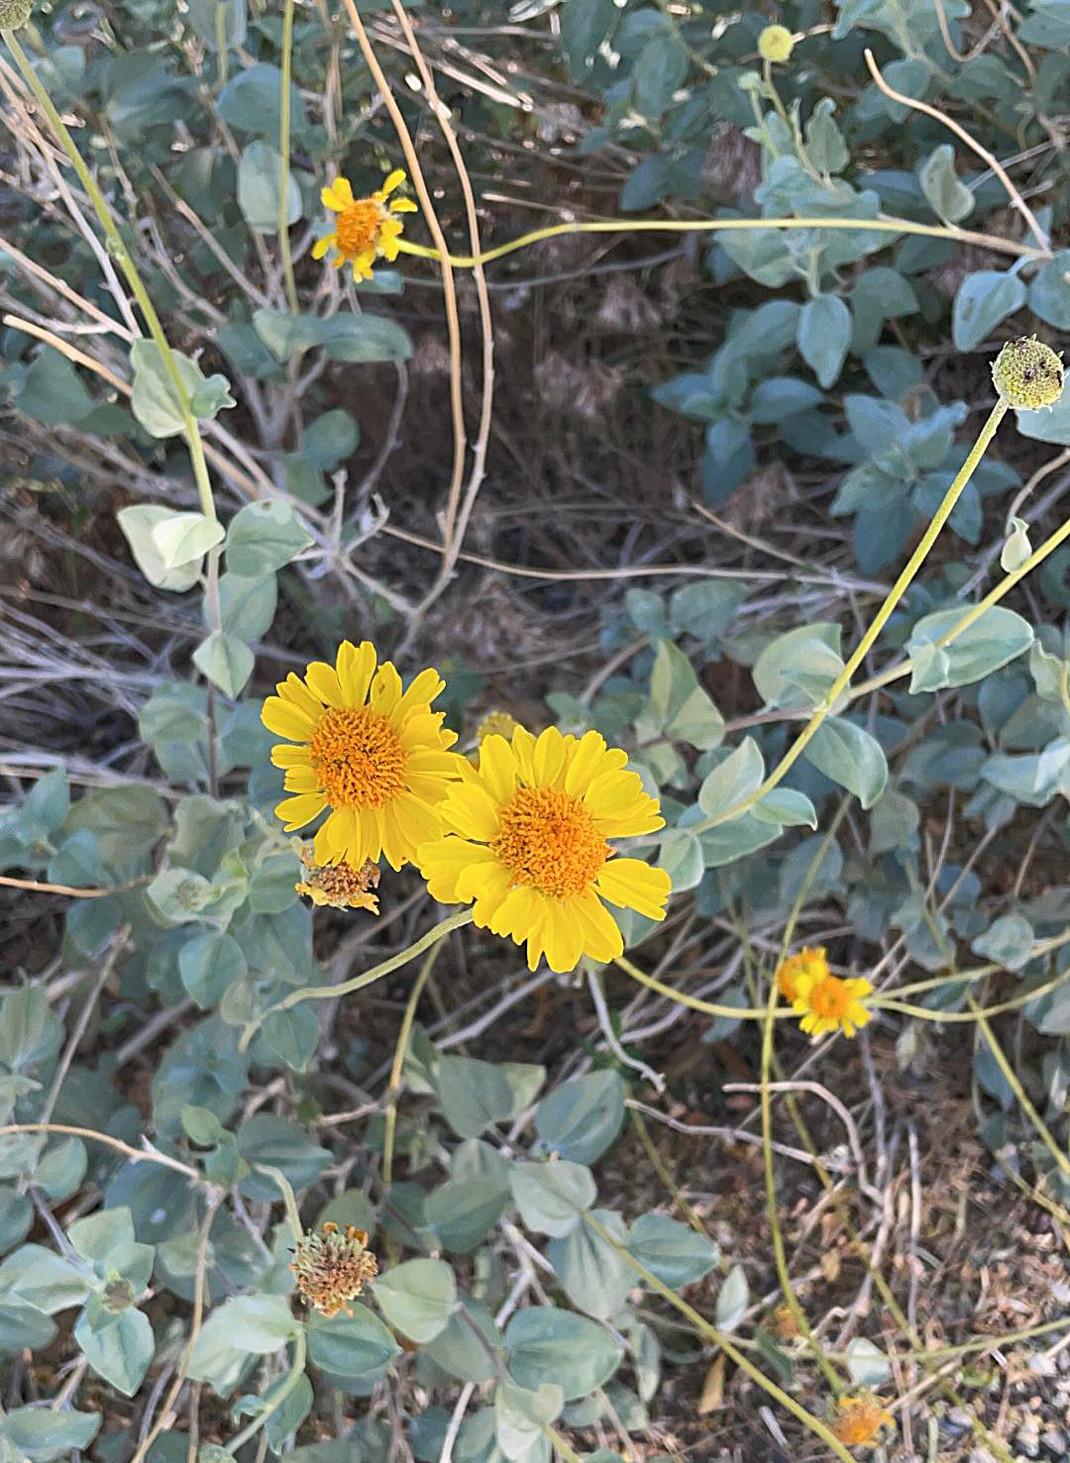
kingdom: Plantae
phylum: Tracheophyta
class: Magnoliopsida
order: Asterales
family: Asteraceae
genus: Encelia
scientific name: Encelia actoni
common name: Acton encelia
